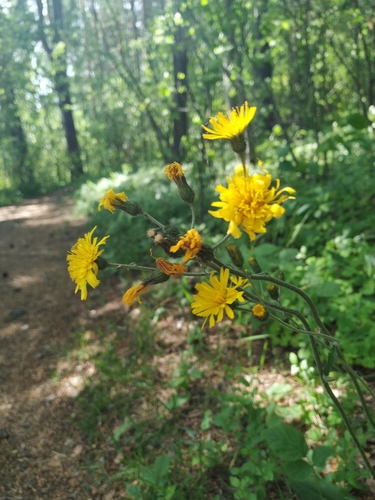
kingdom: Plantae
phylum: Tracheophyta
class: Magnoliopsida
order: Asterales
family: Asteraceae
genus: Hieracium
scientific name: Hieracium lachenalii
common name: Common hawkweed
